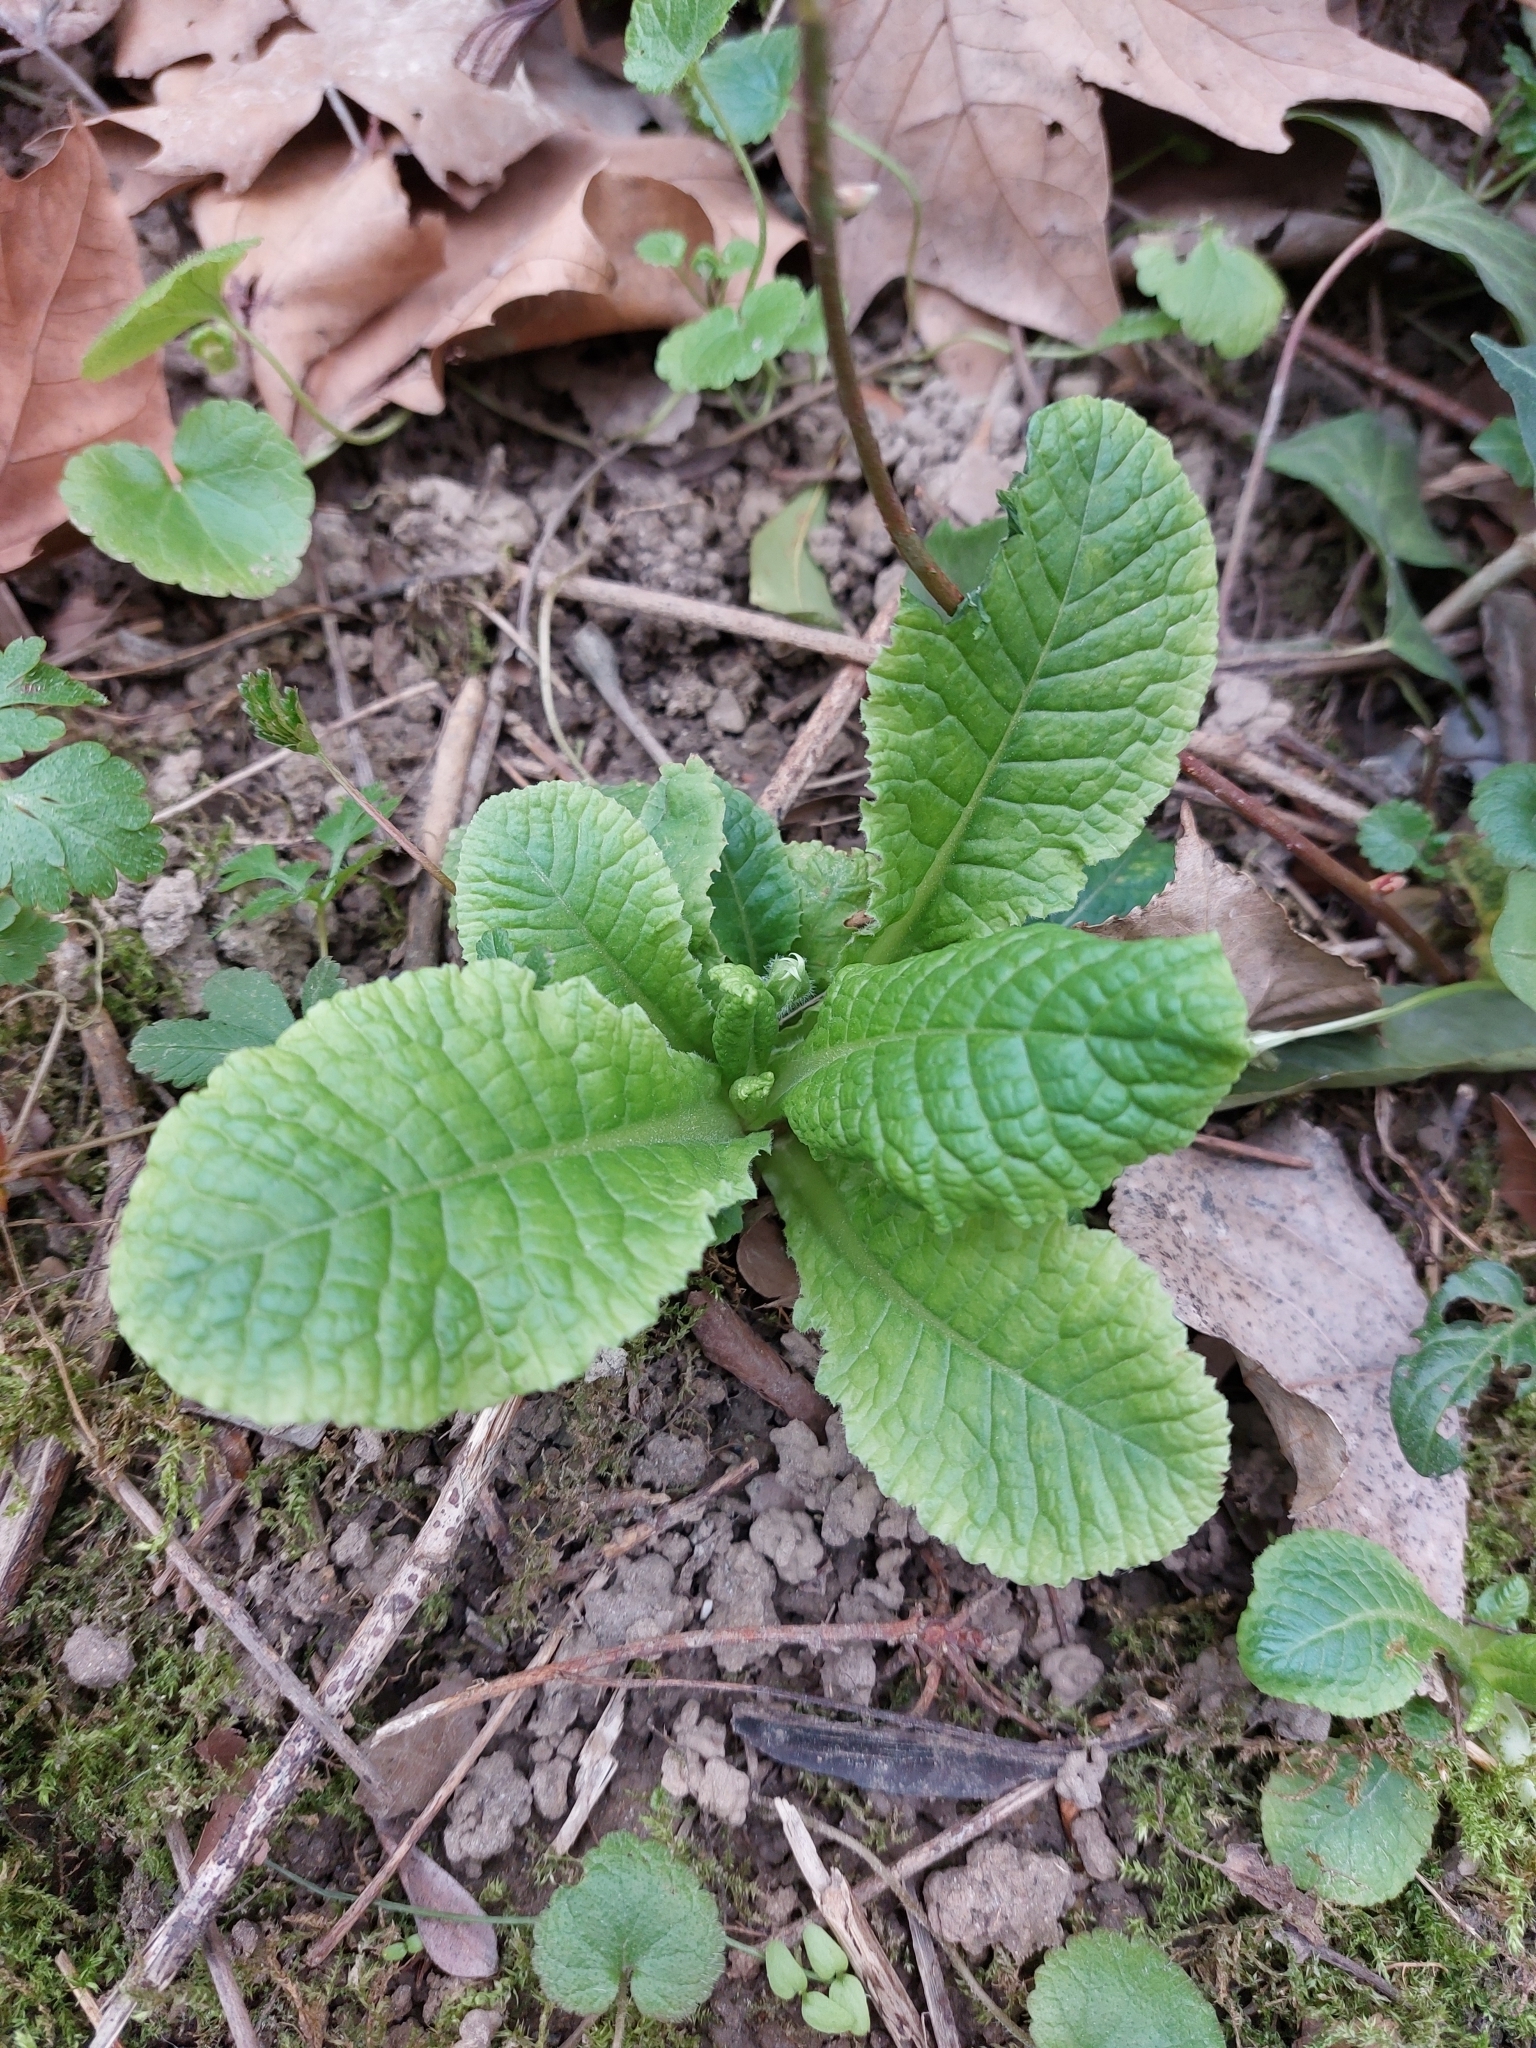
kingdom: Plantae
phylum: Tracheophyta
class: Magnoliopsida
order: Ericales
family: Primulaceae
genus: Primula
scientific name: Primula vulgaris
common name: Primrose
